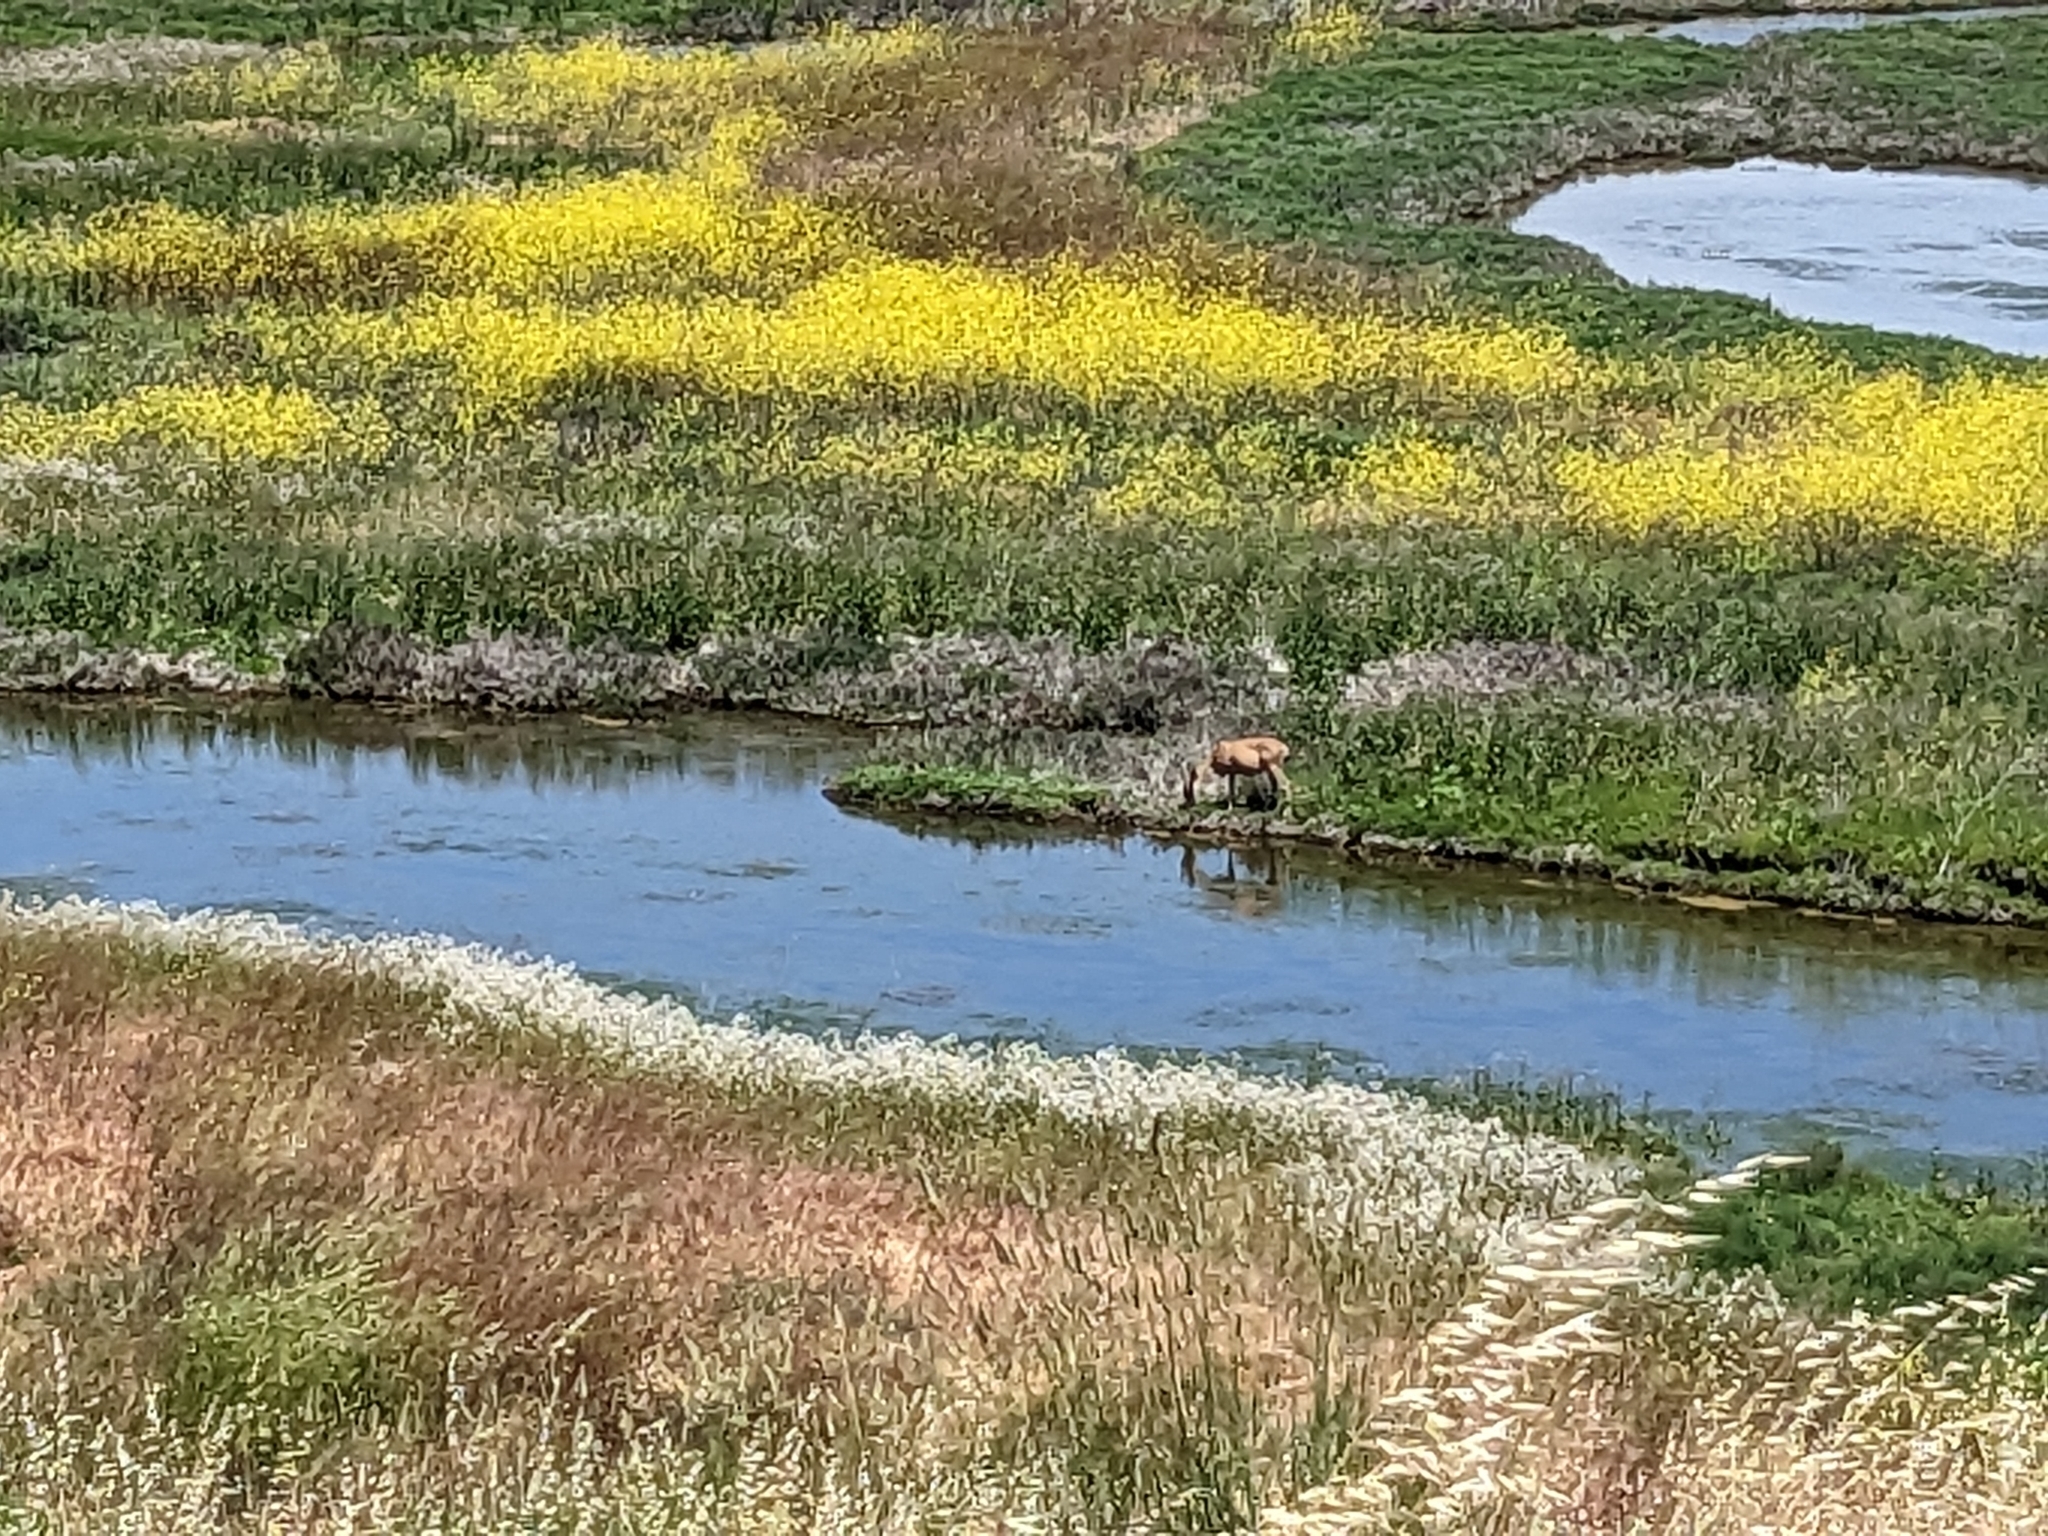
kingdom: Animalia
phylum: Chordata
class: Mammalia
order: Artiodactyla
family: Cervidae
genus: Odocoileus
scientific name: Odocoileus hemionus
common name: Mule deer
